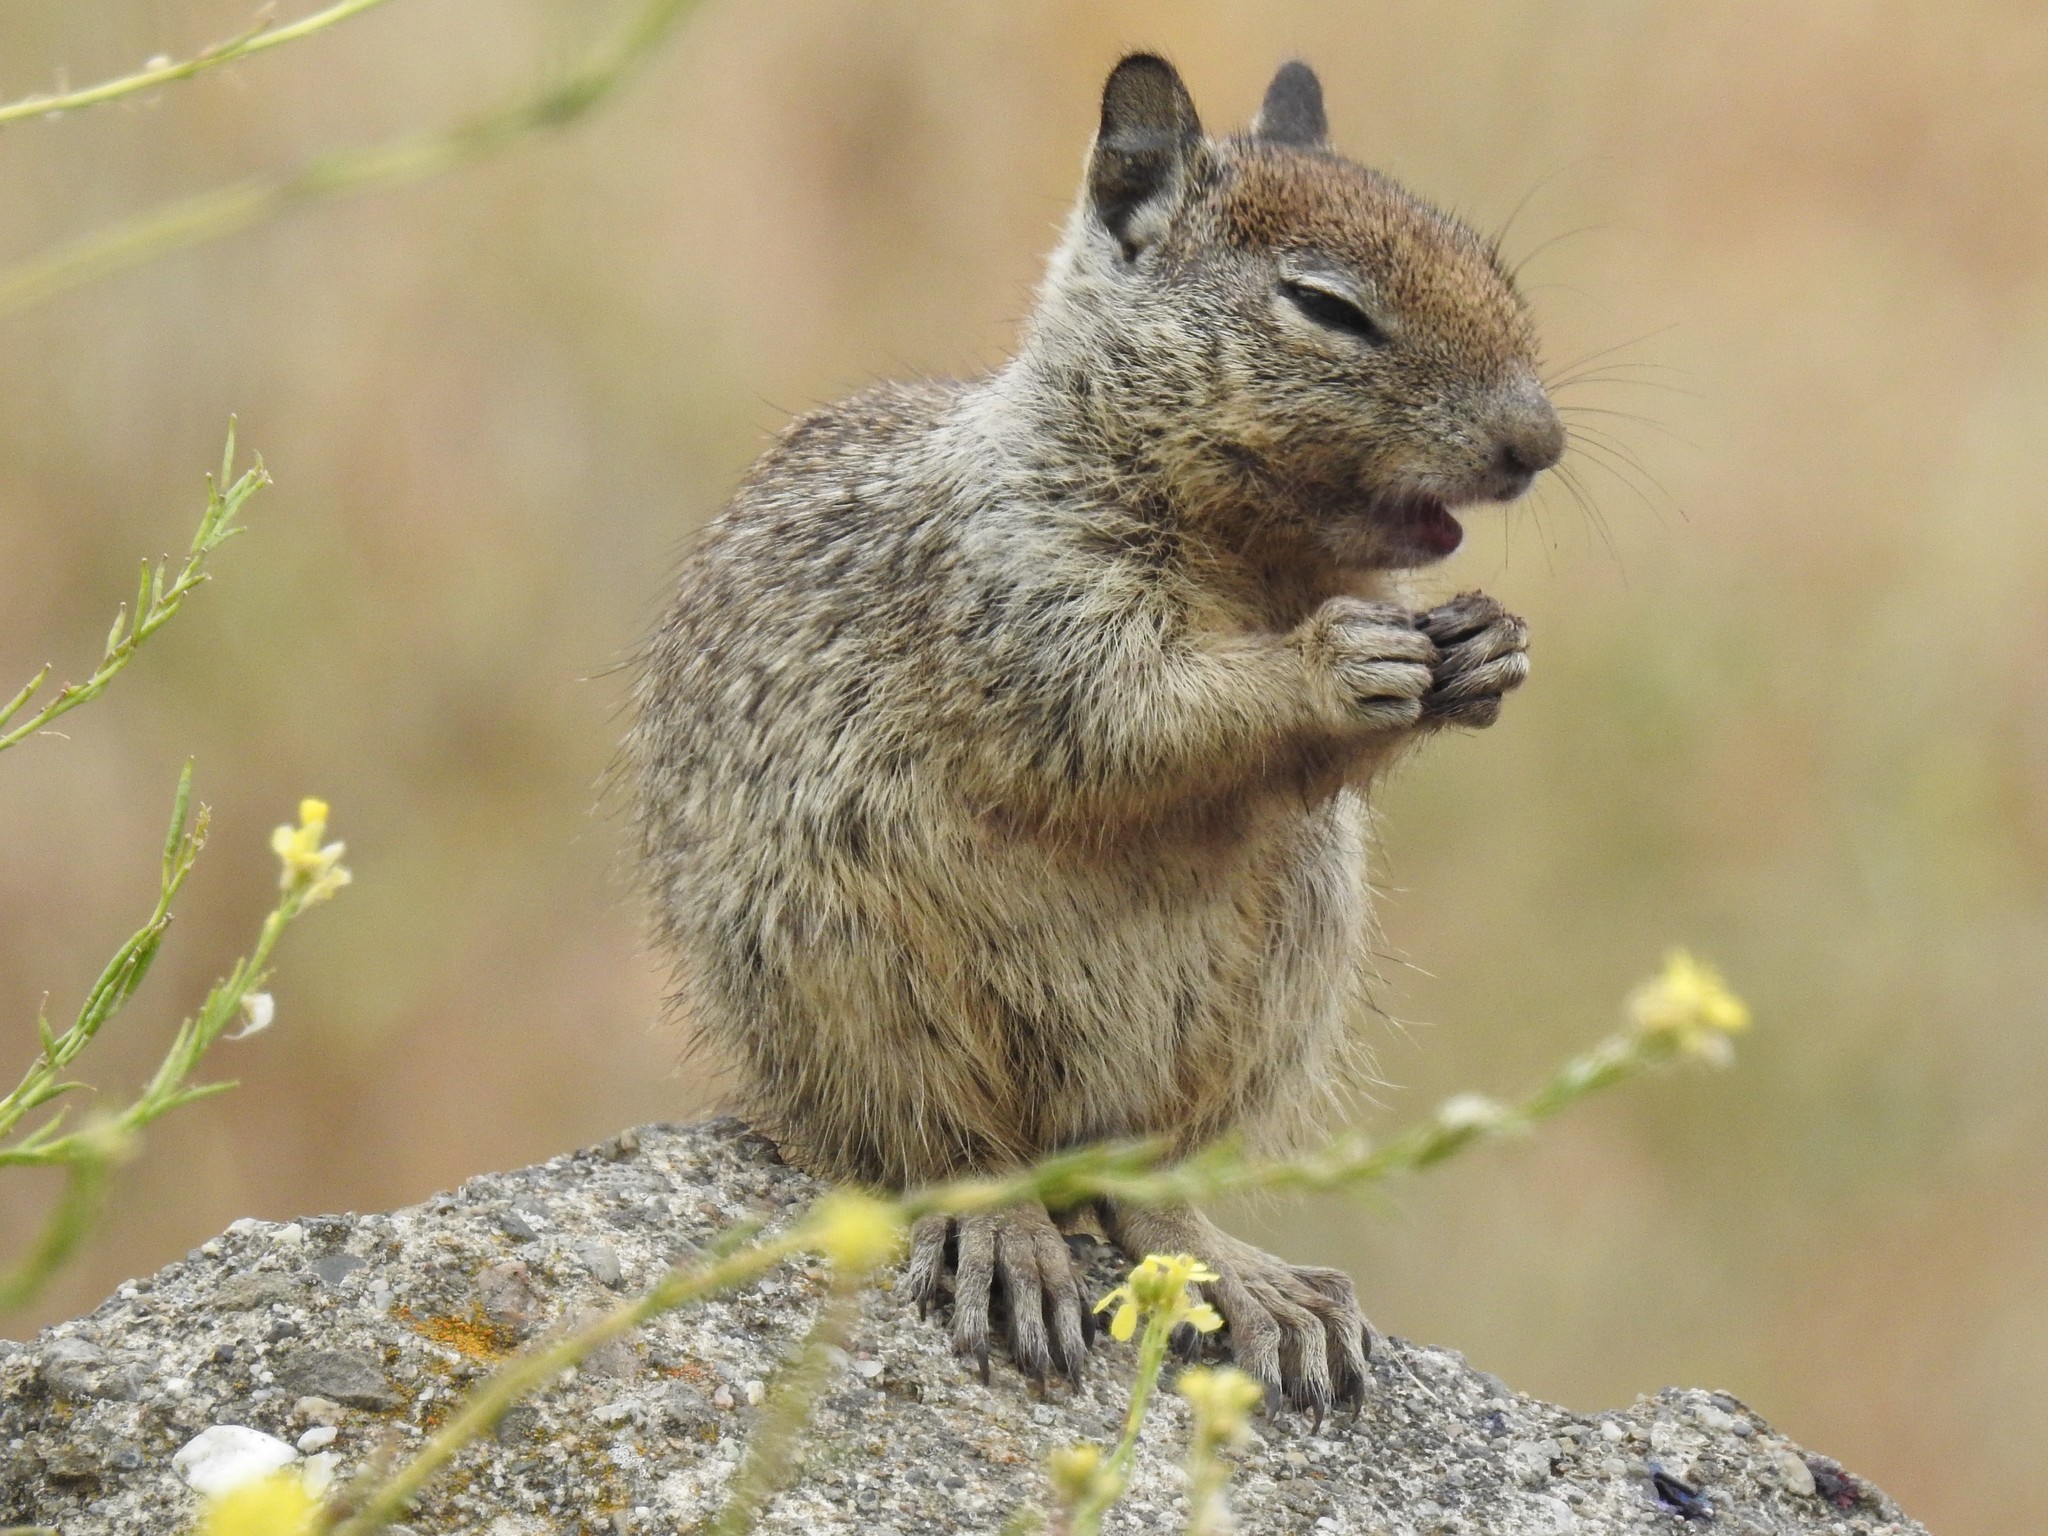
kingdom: Animalia
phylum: Chordata
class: Mammalia
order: Rodentia
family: Sciuridae
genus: Otospermophilus
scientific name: Otospermophilus beecheyi
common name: California ground squirrel
